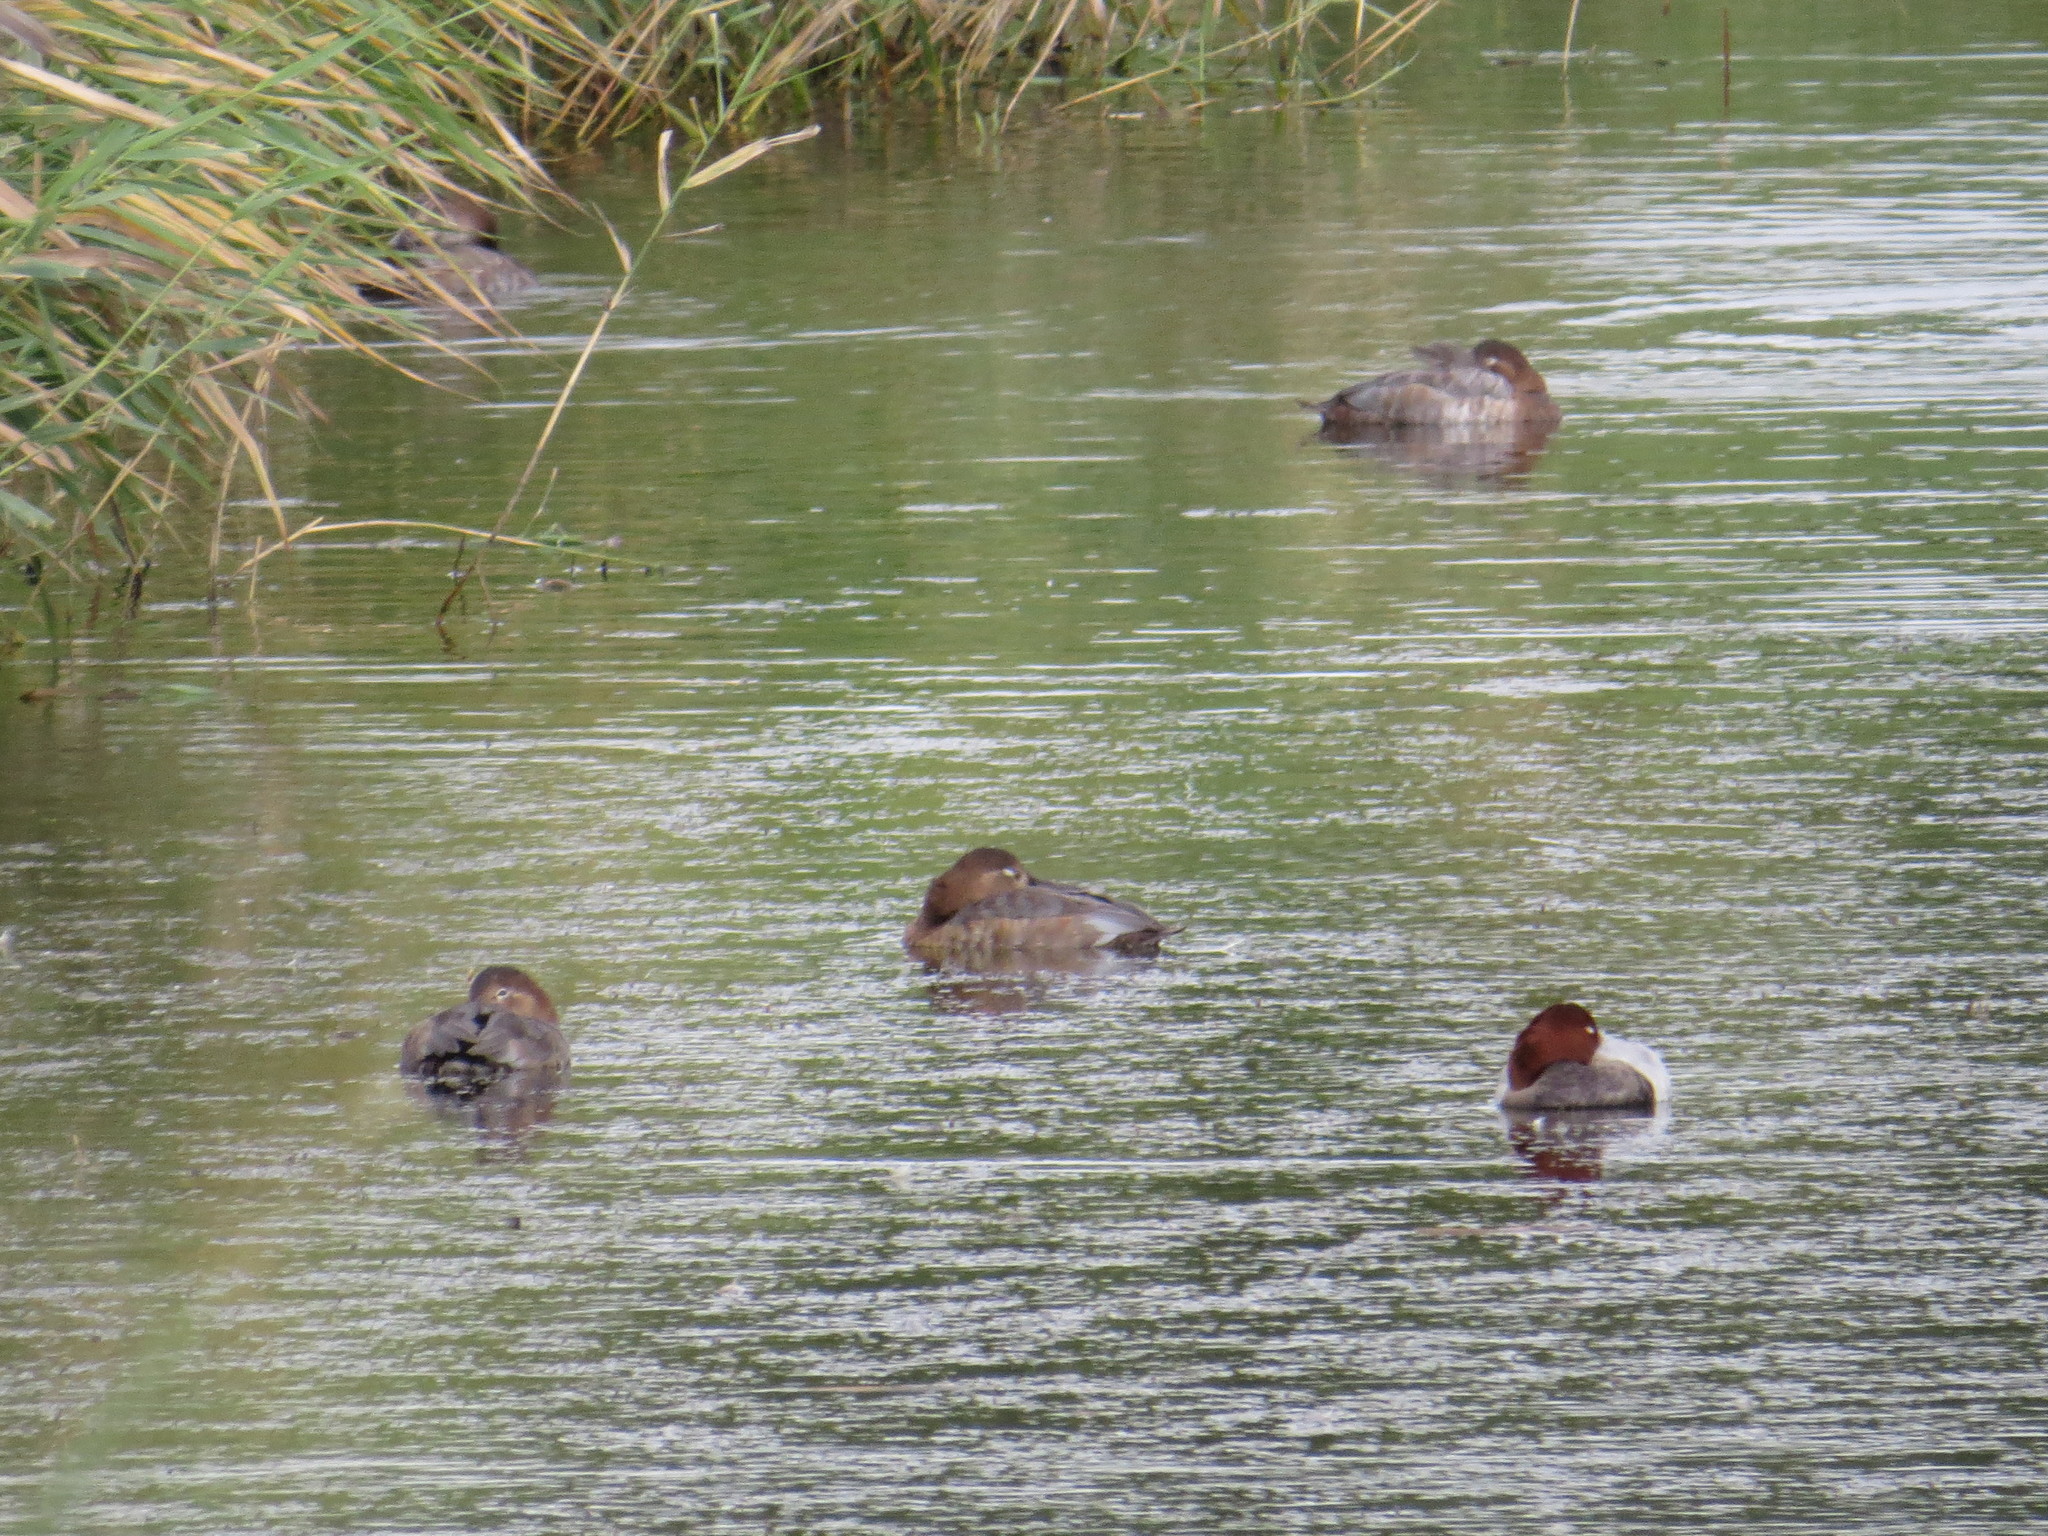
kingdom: Animalia
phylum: Chordata
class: Aves
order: Anseriformes
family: Anatidae
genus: Aythya
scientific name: Aythya ferina
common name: Common pochard
